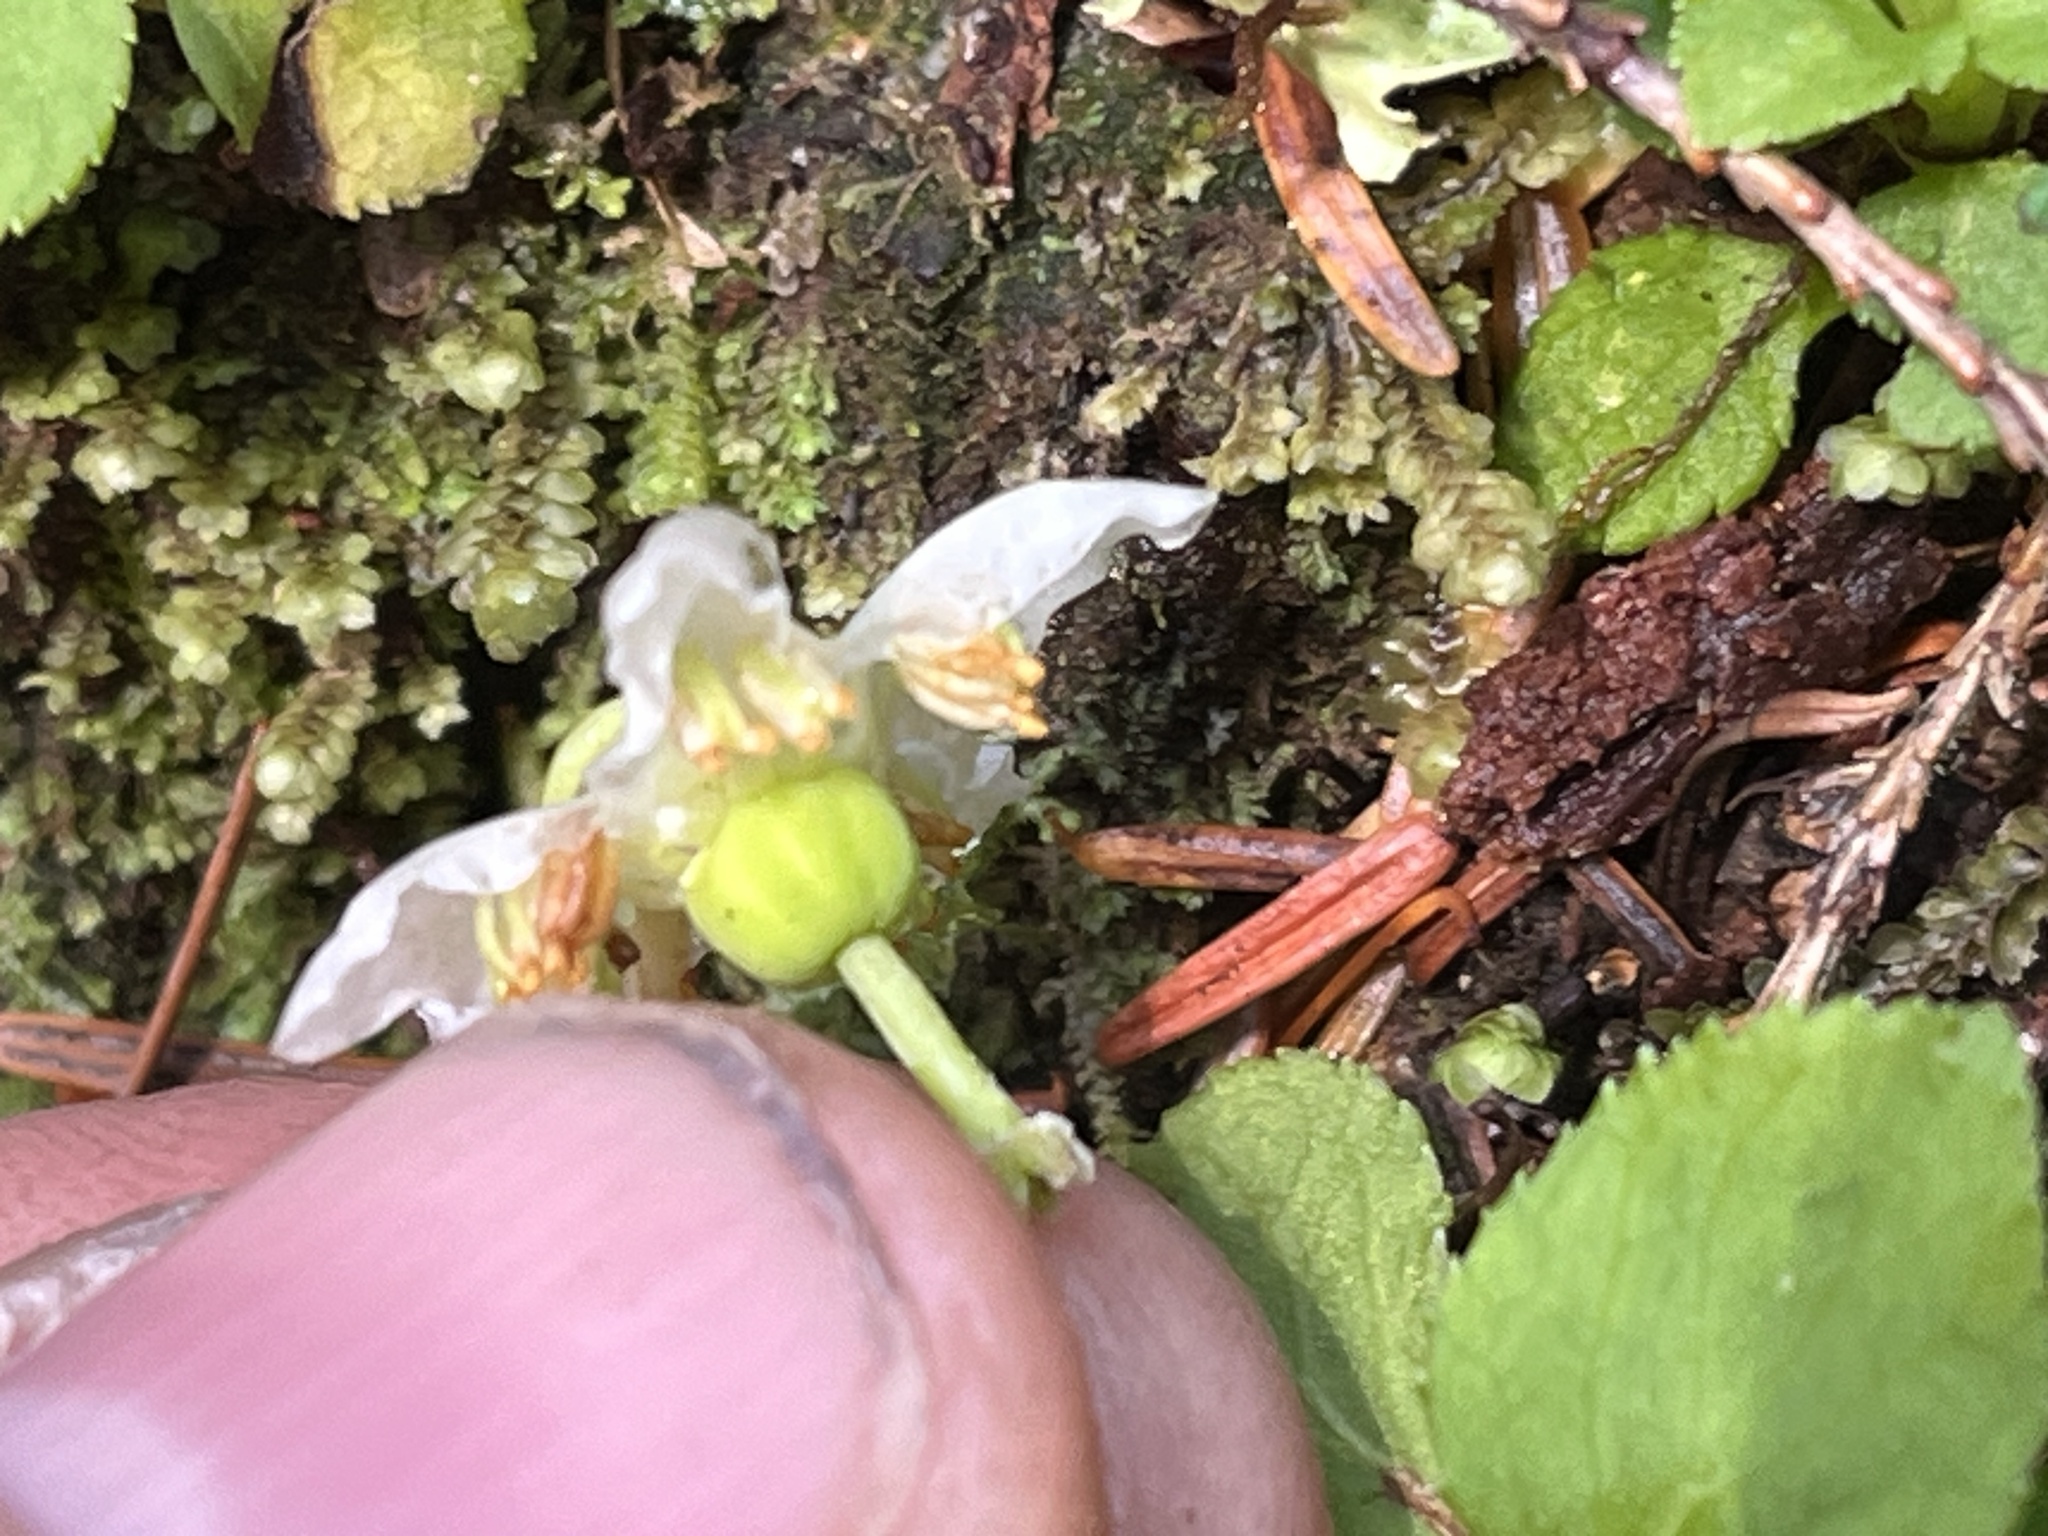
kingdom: Plantae
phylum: Tracheophyta
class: Magnoliopsida
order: Ericales
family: Ericaceae
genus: Moneses
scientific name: Moneses uniflora
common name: One-flowered wintergreen
